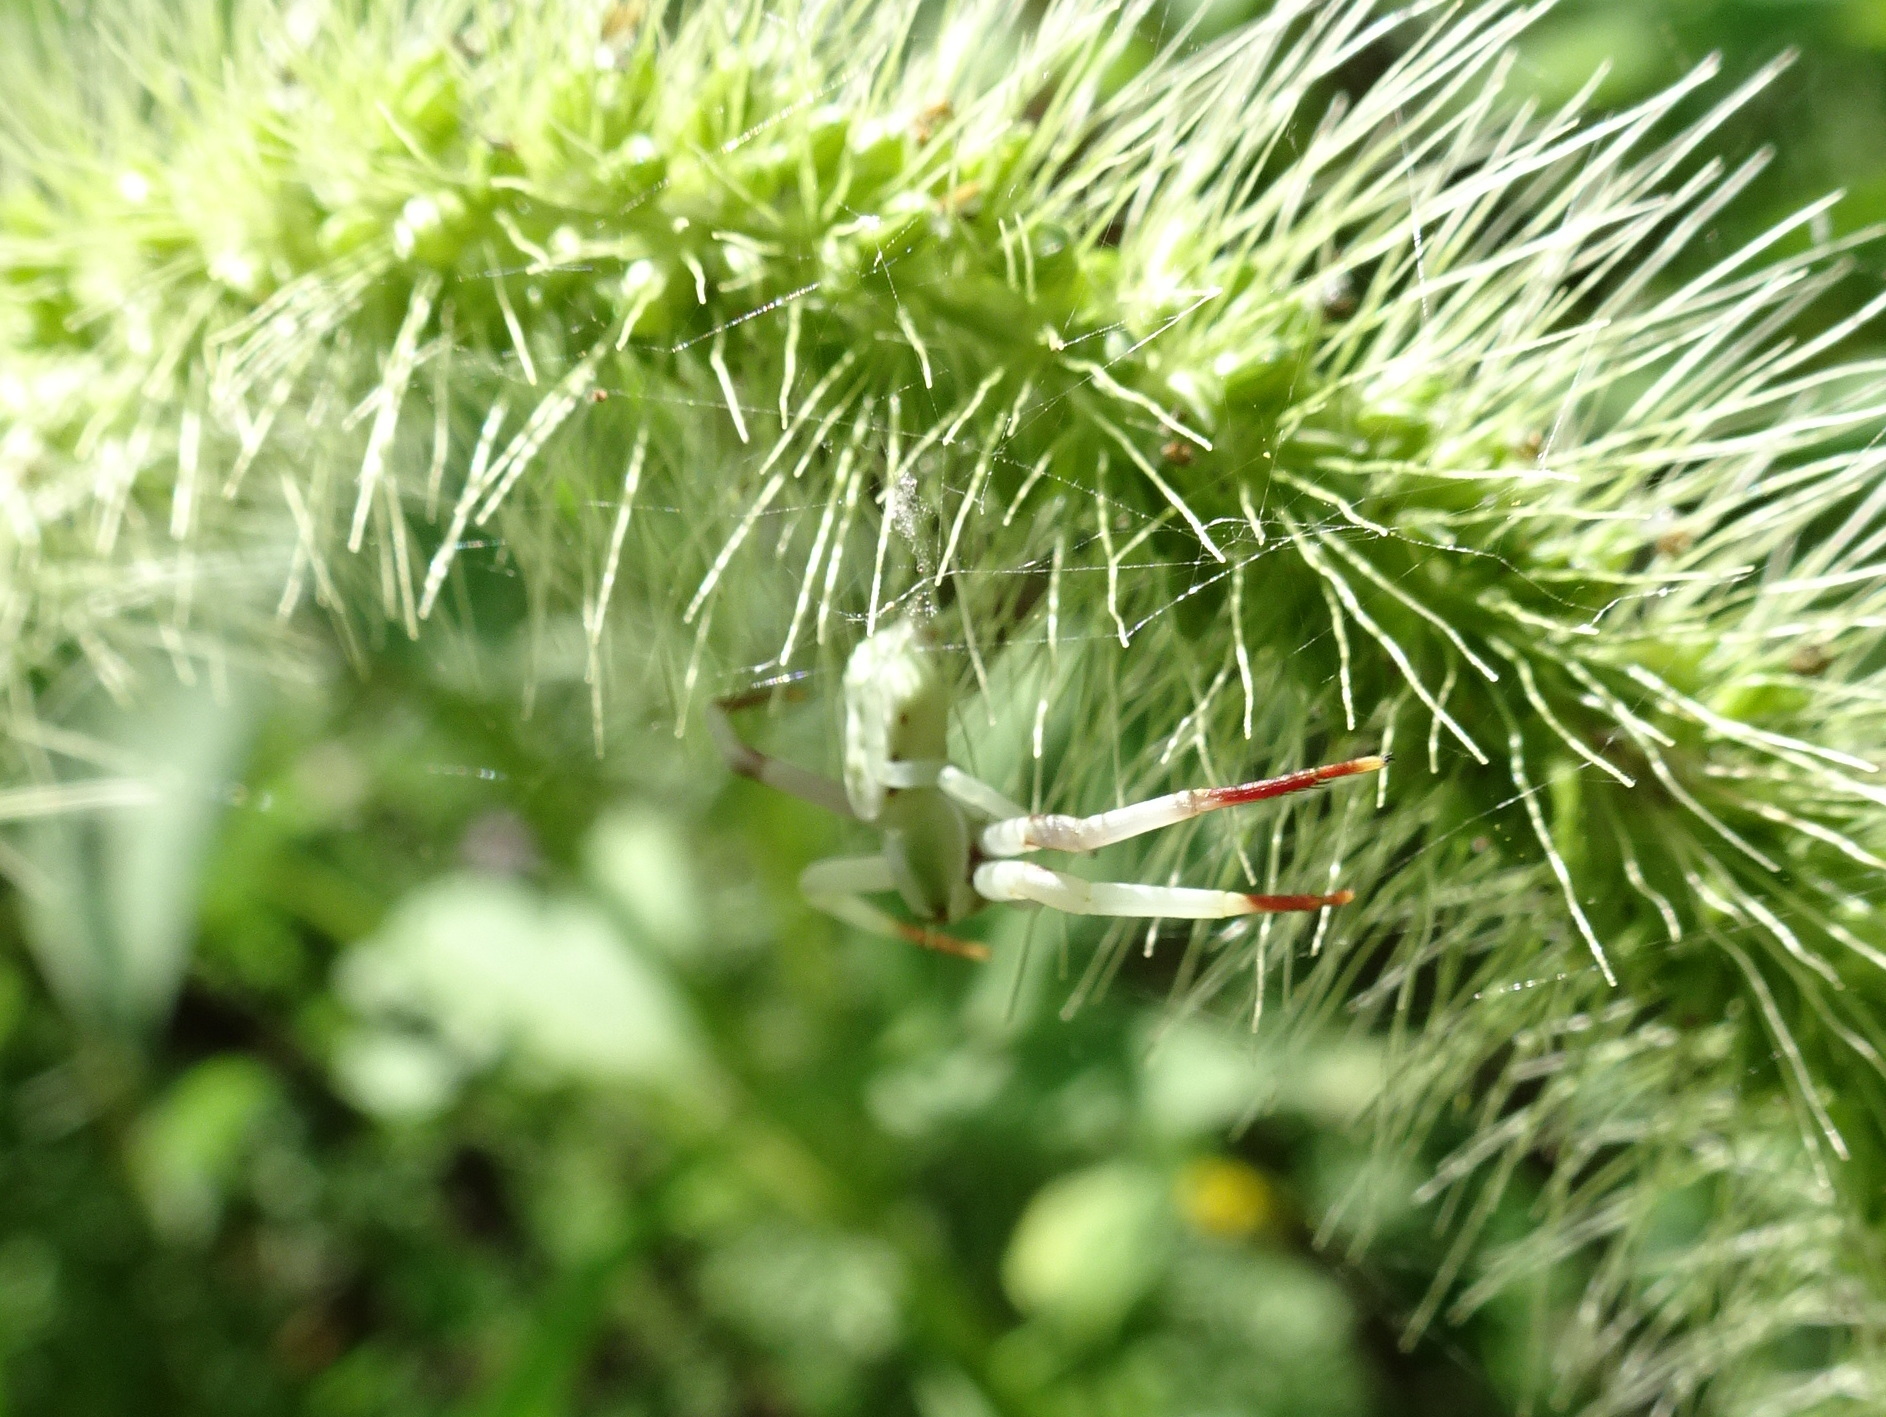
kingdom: Animalia
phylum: Arthropoda
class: Arachnida
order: Araneae
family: Thomisidae
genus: Misumenoides
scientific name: Misumenoides formosipes
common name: White-banded crab spider
